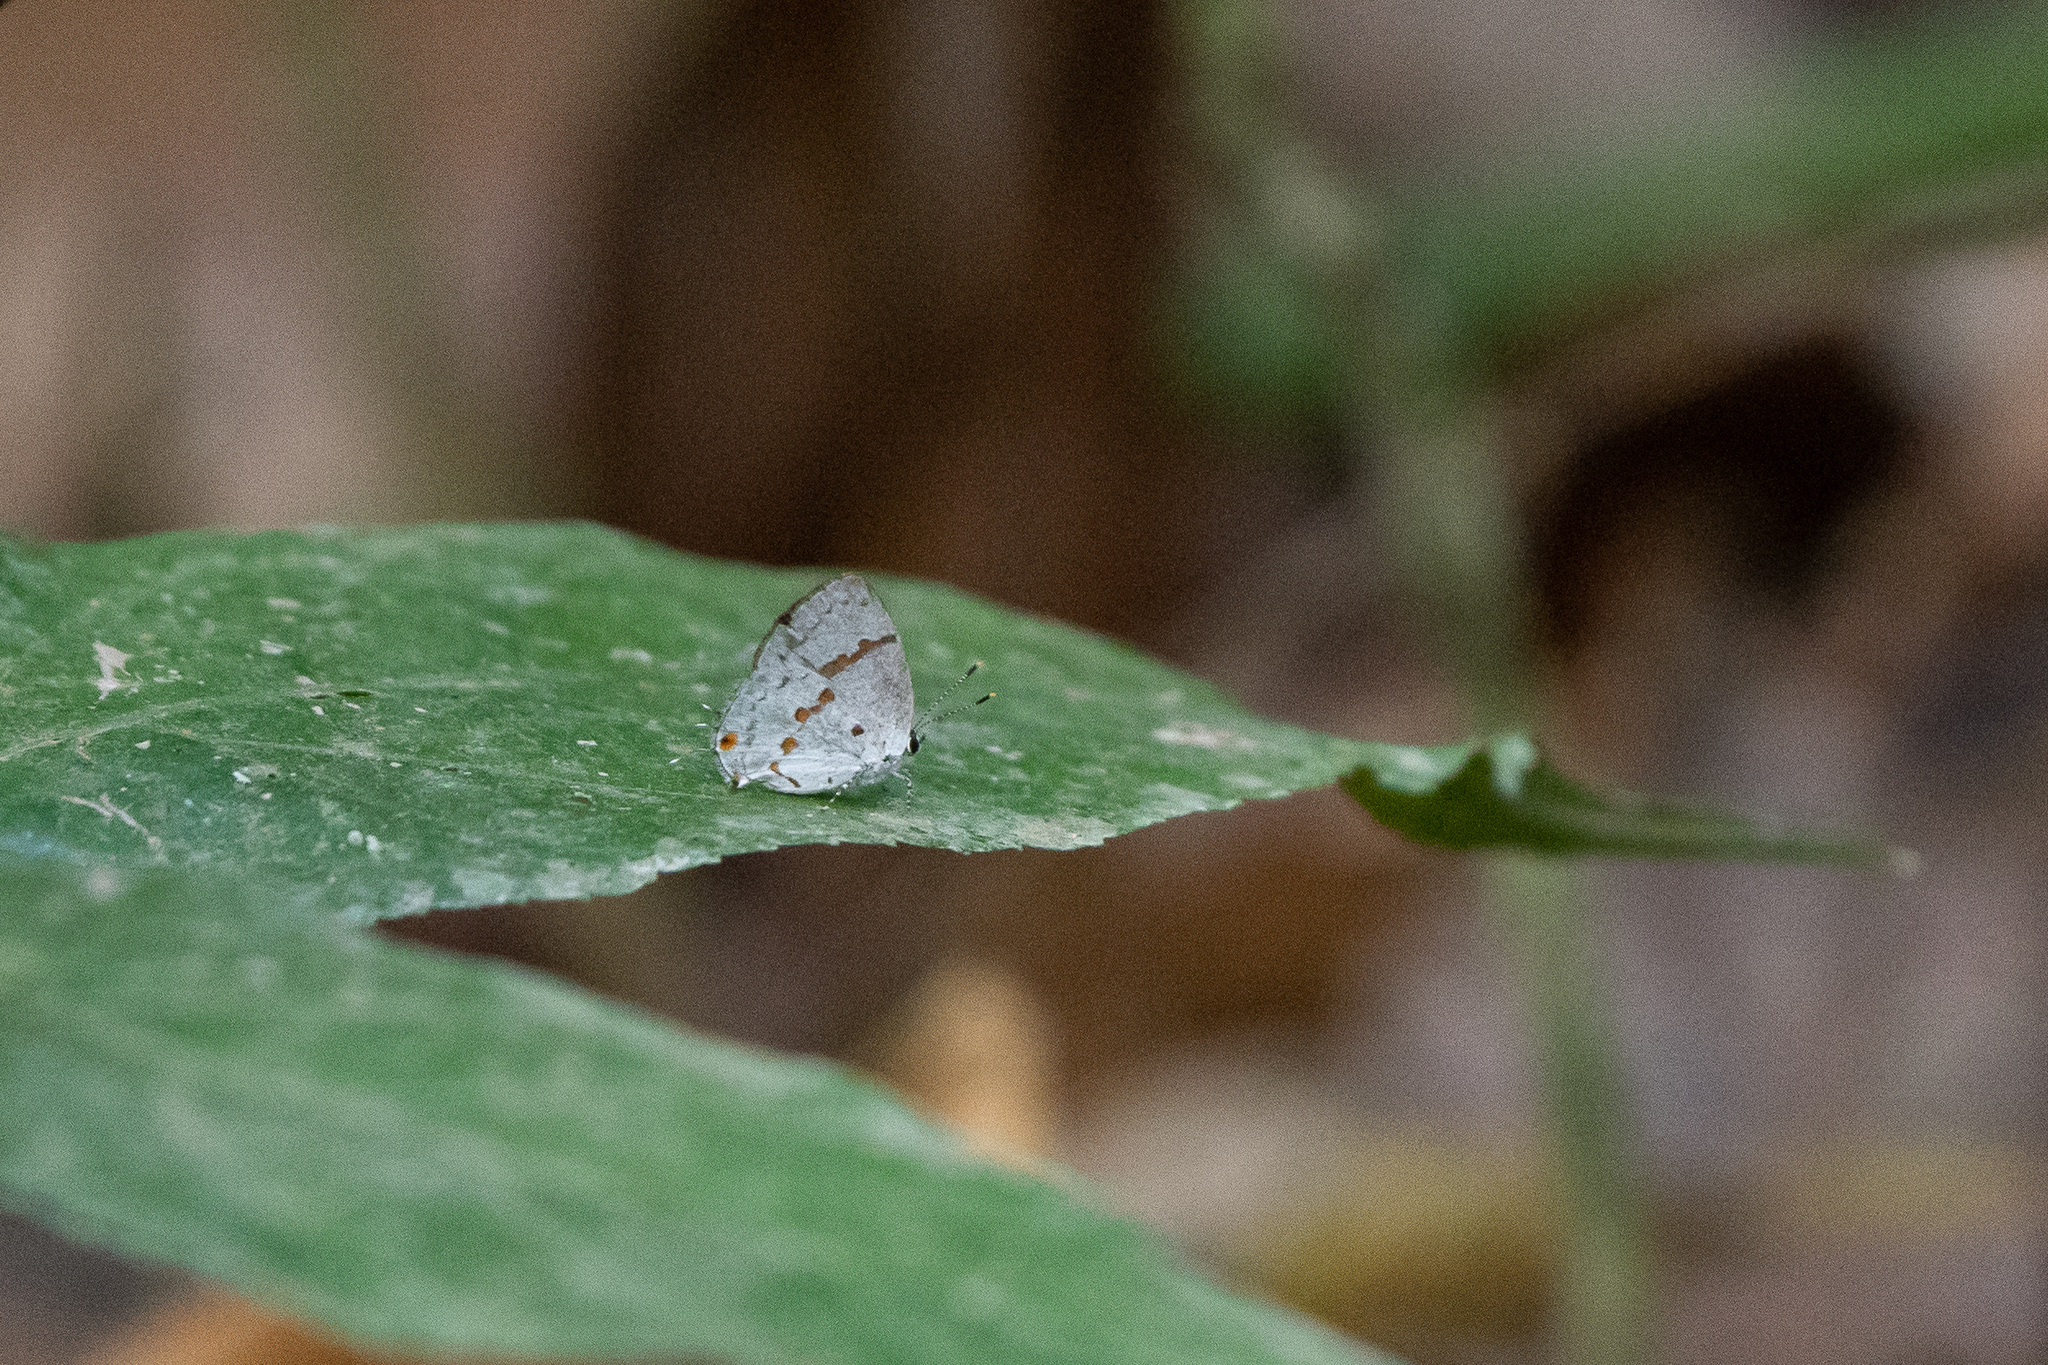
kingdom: Animalia
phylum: Arthropoda
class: Insecta
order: Lepidoptera
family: Lycaenidae
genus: Thecla
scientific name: Thecla celmus
